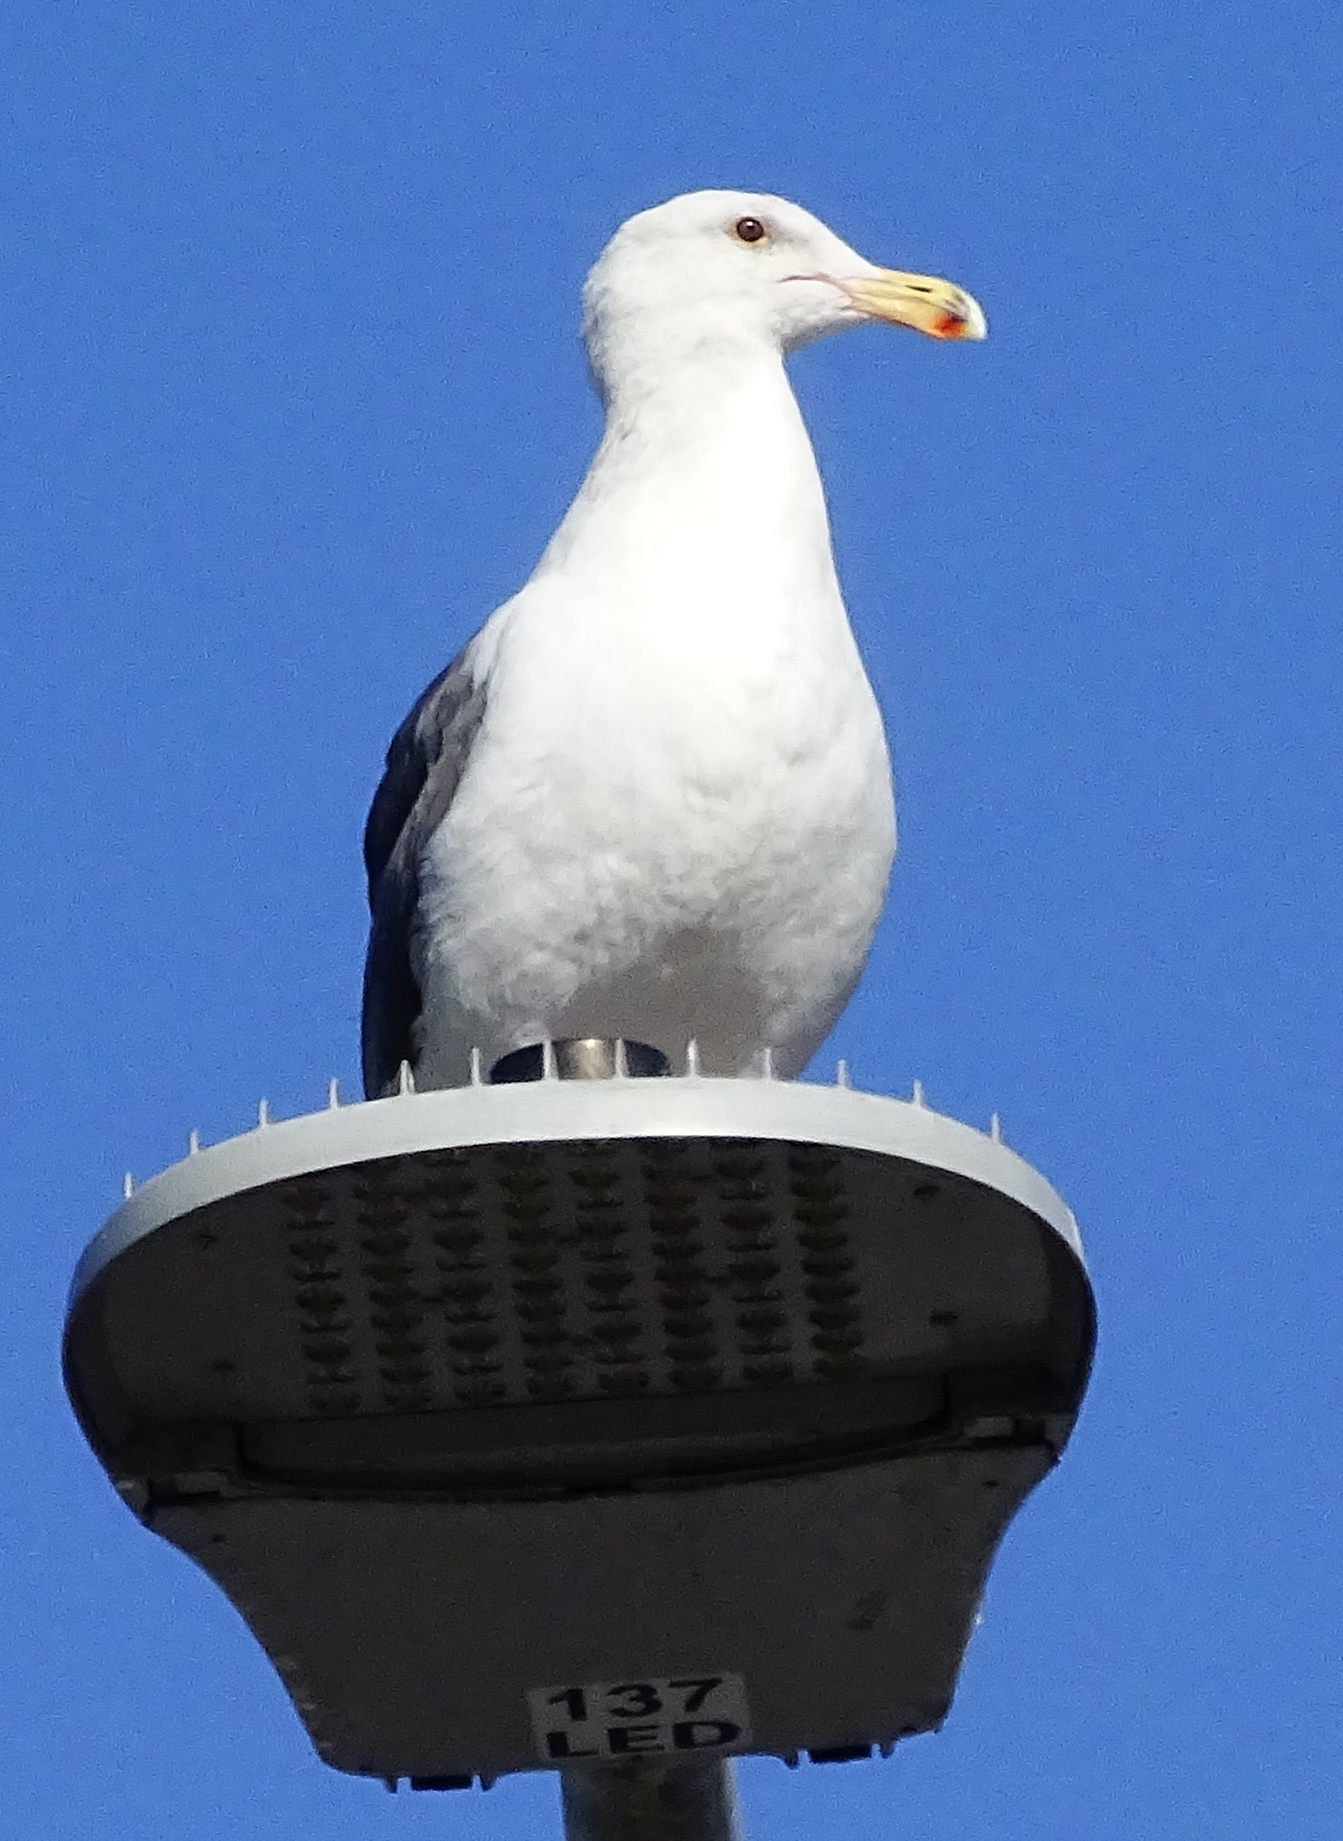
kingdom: Animalia
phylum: Chordata
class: Aves
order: Charadriiformes
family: Laridae
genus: Larus
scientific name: Larus occidentalis
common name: Western gull
